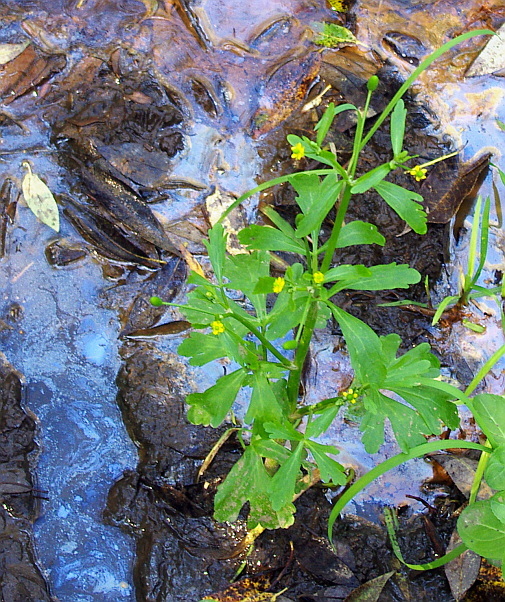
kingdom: Plantae
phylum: Tracheophyta
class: Magnoliopsida
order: Ranunculales
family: Ranunculaceae
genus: Ranunculus
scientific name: Ranunculus sceleratus
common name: Celery-leaved buttercup
